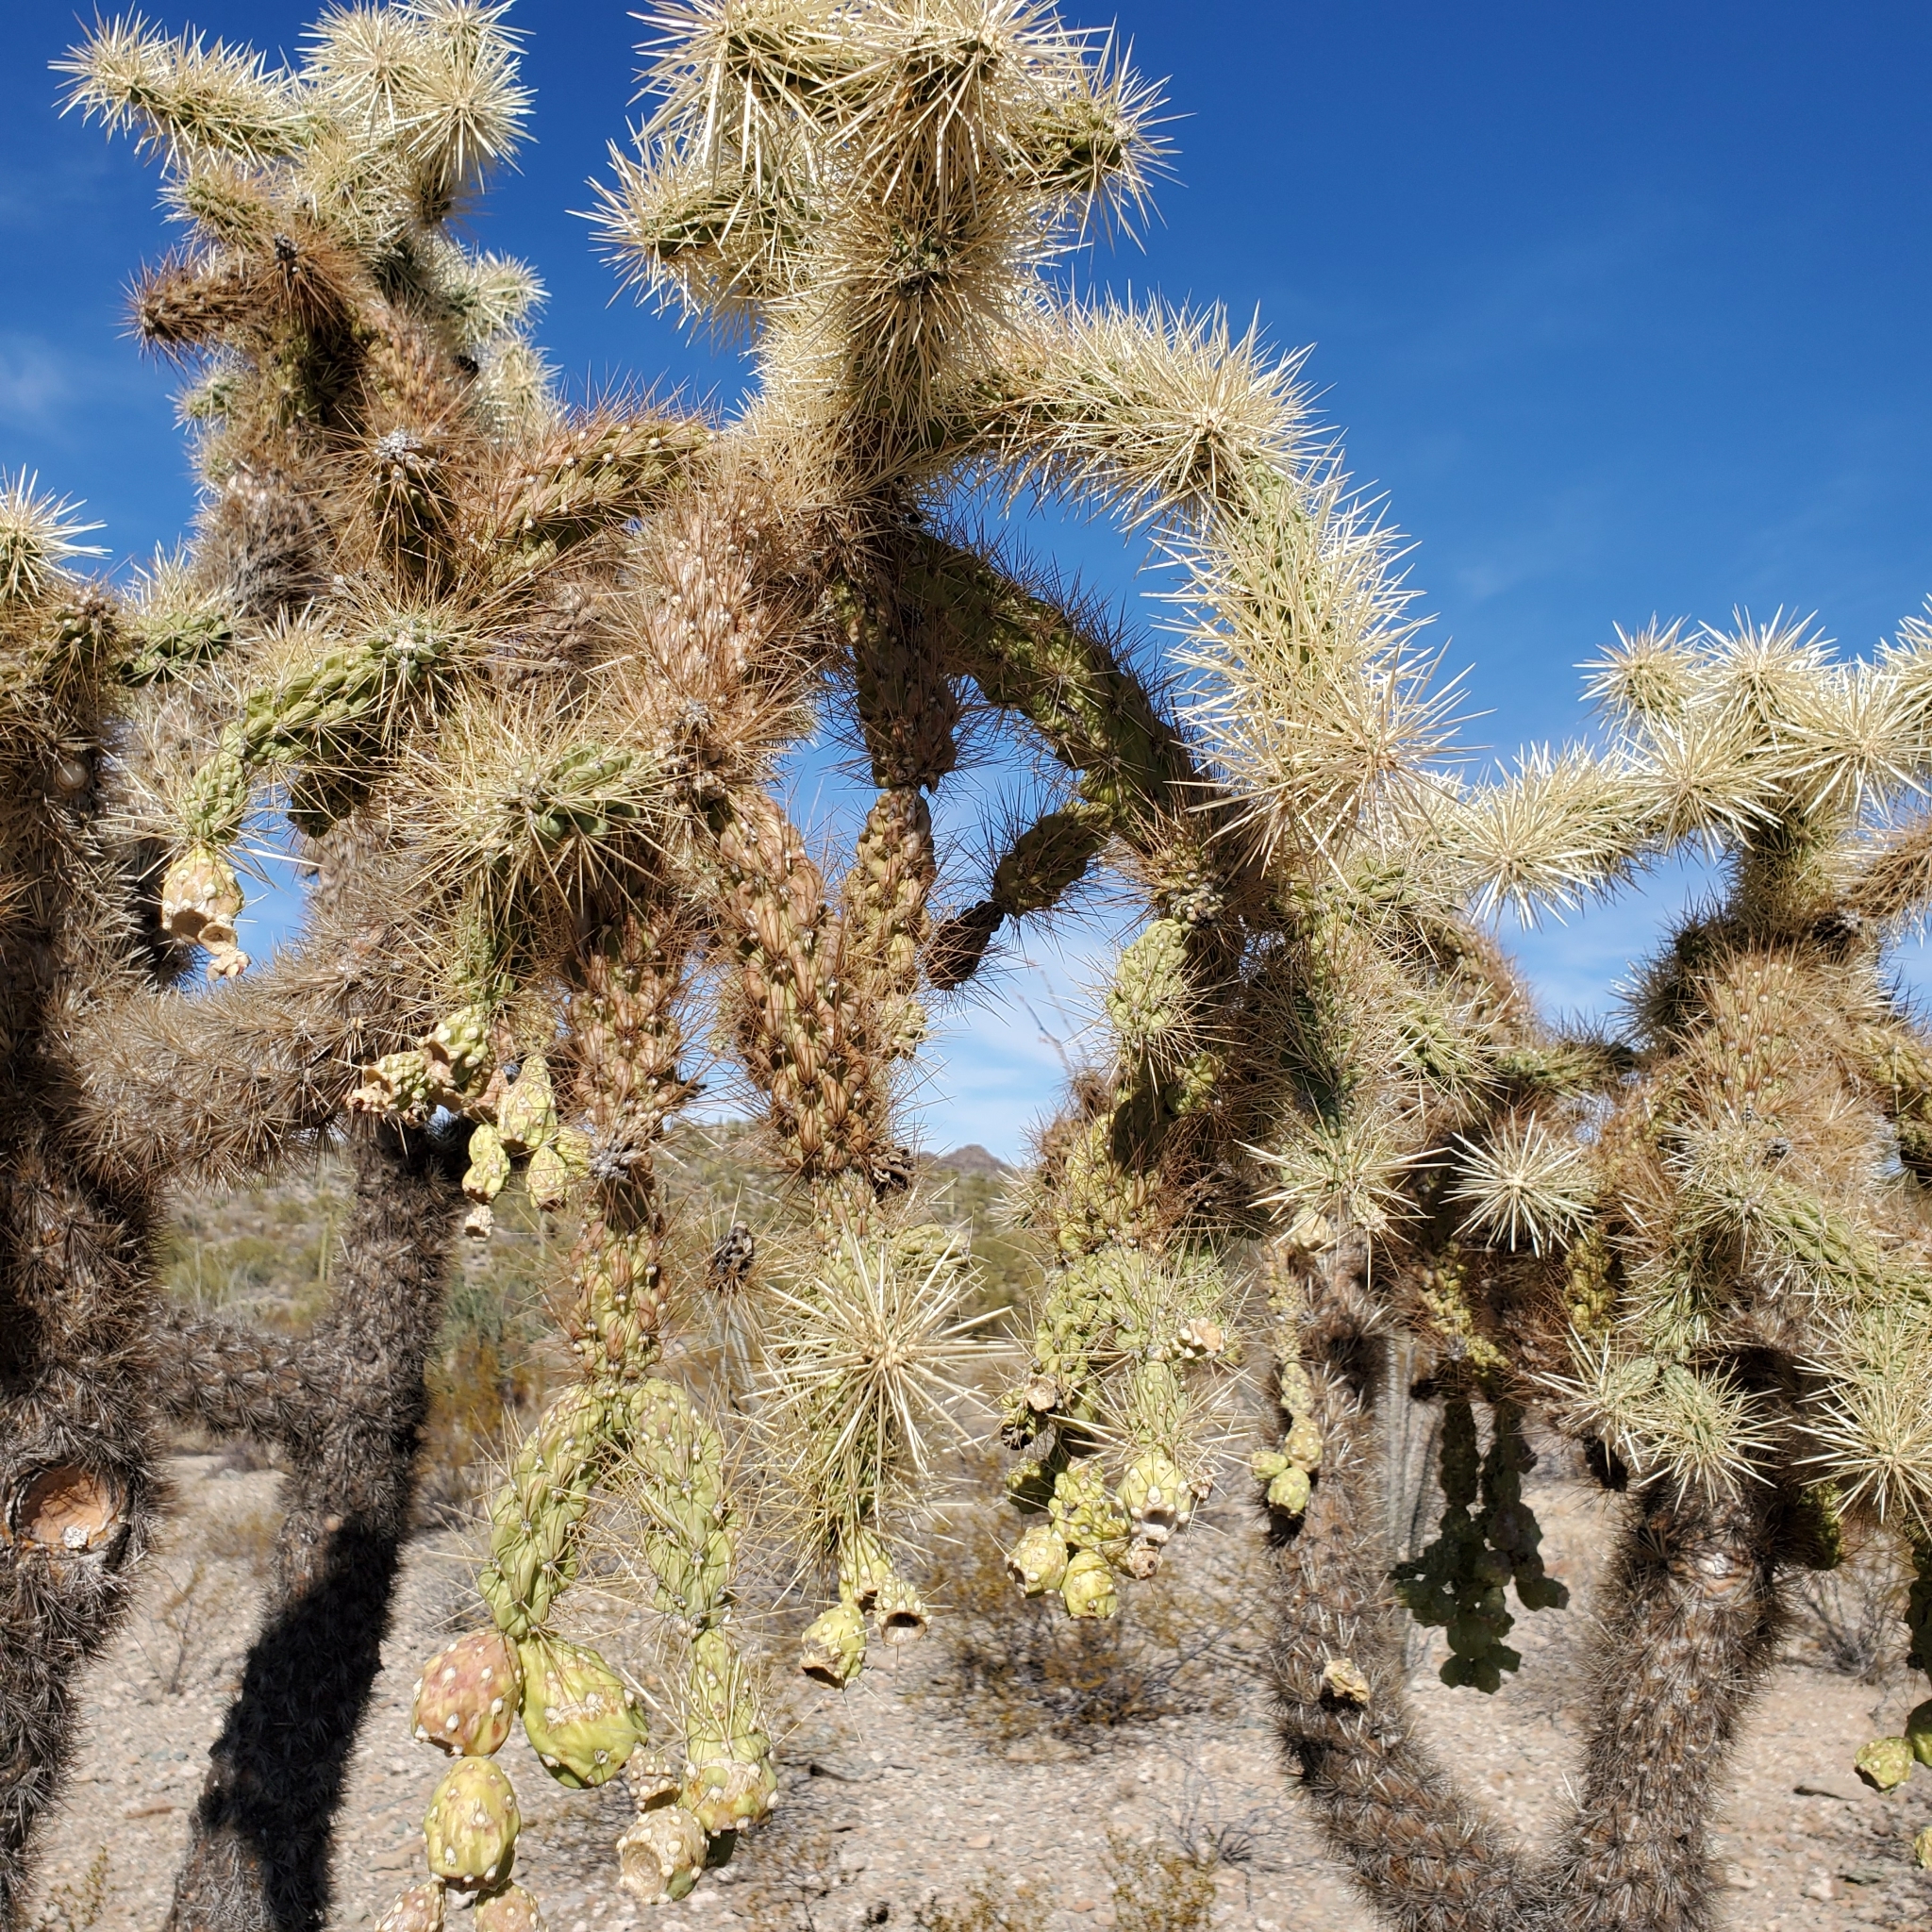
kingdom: Plantae
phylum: Tracheophyta
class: Magnoliopsida
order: Caryophyllales
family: Cactaceae
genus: Cylindropuntia
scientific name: Cylindropuntia fulgida
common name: Jumping cholla
